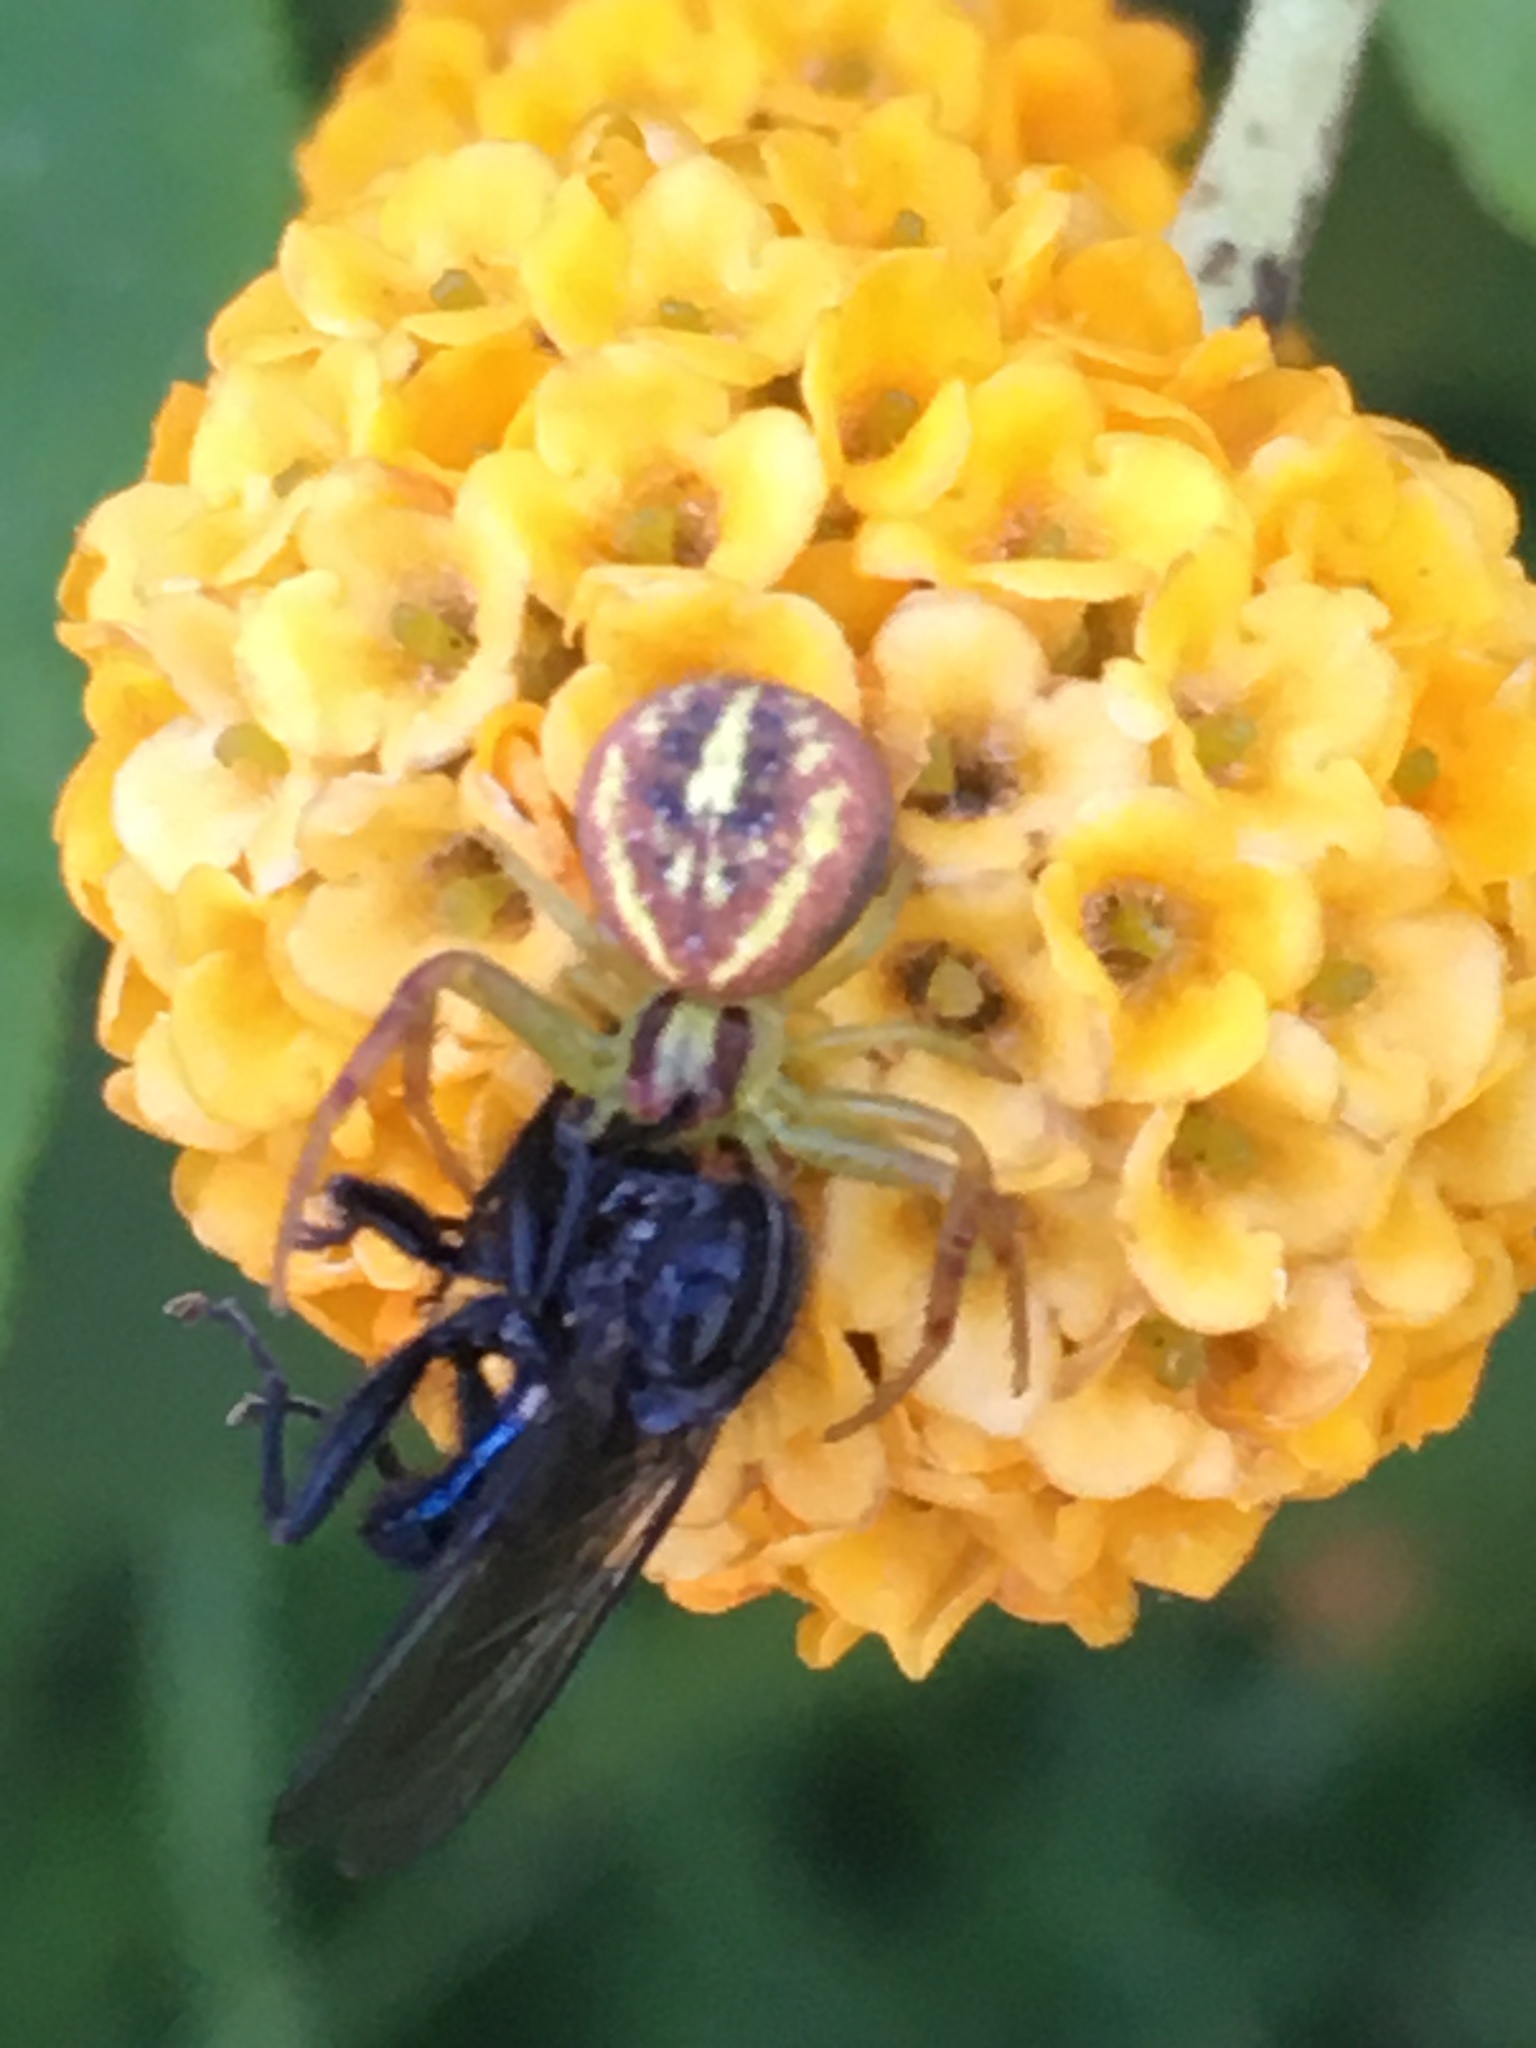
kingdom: Animalia
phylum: Arthropoda
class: Arachnida
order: Araneae
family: Thomisidae
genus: Misumenops
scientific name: Misumenops
